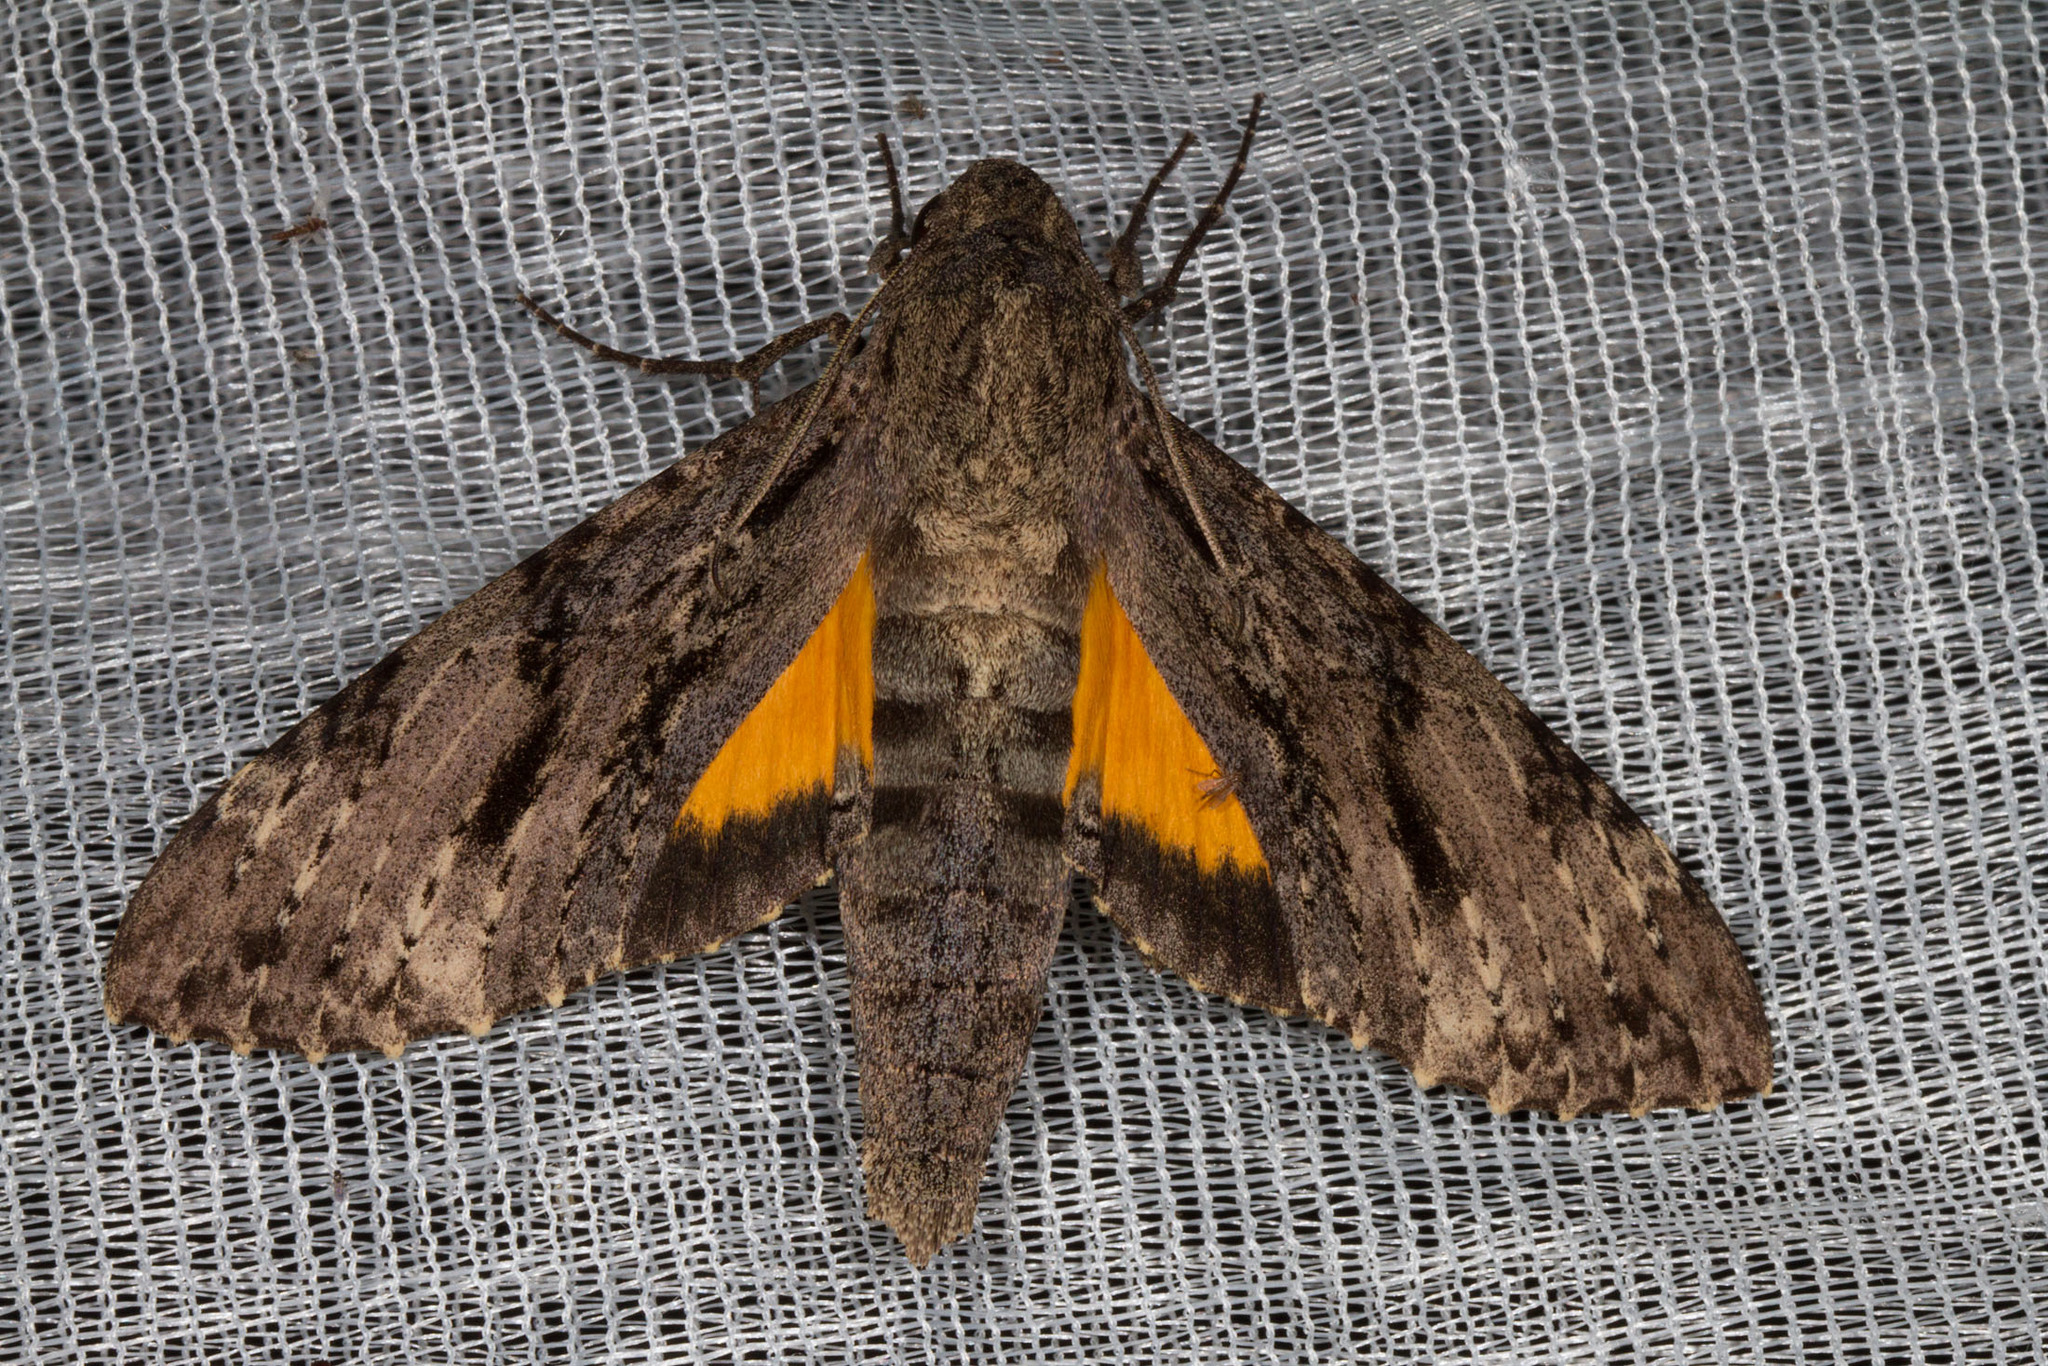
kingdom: Animalia
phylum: Arthropoda
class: Insecta
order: Lepidoptera
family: Sphingidae
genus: Isognathus
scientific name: Isognathus swainsoni
